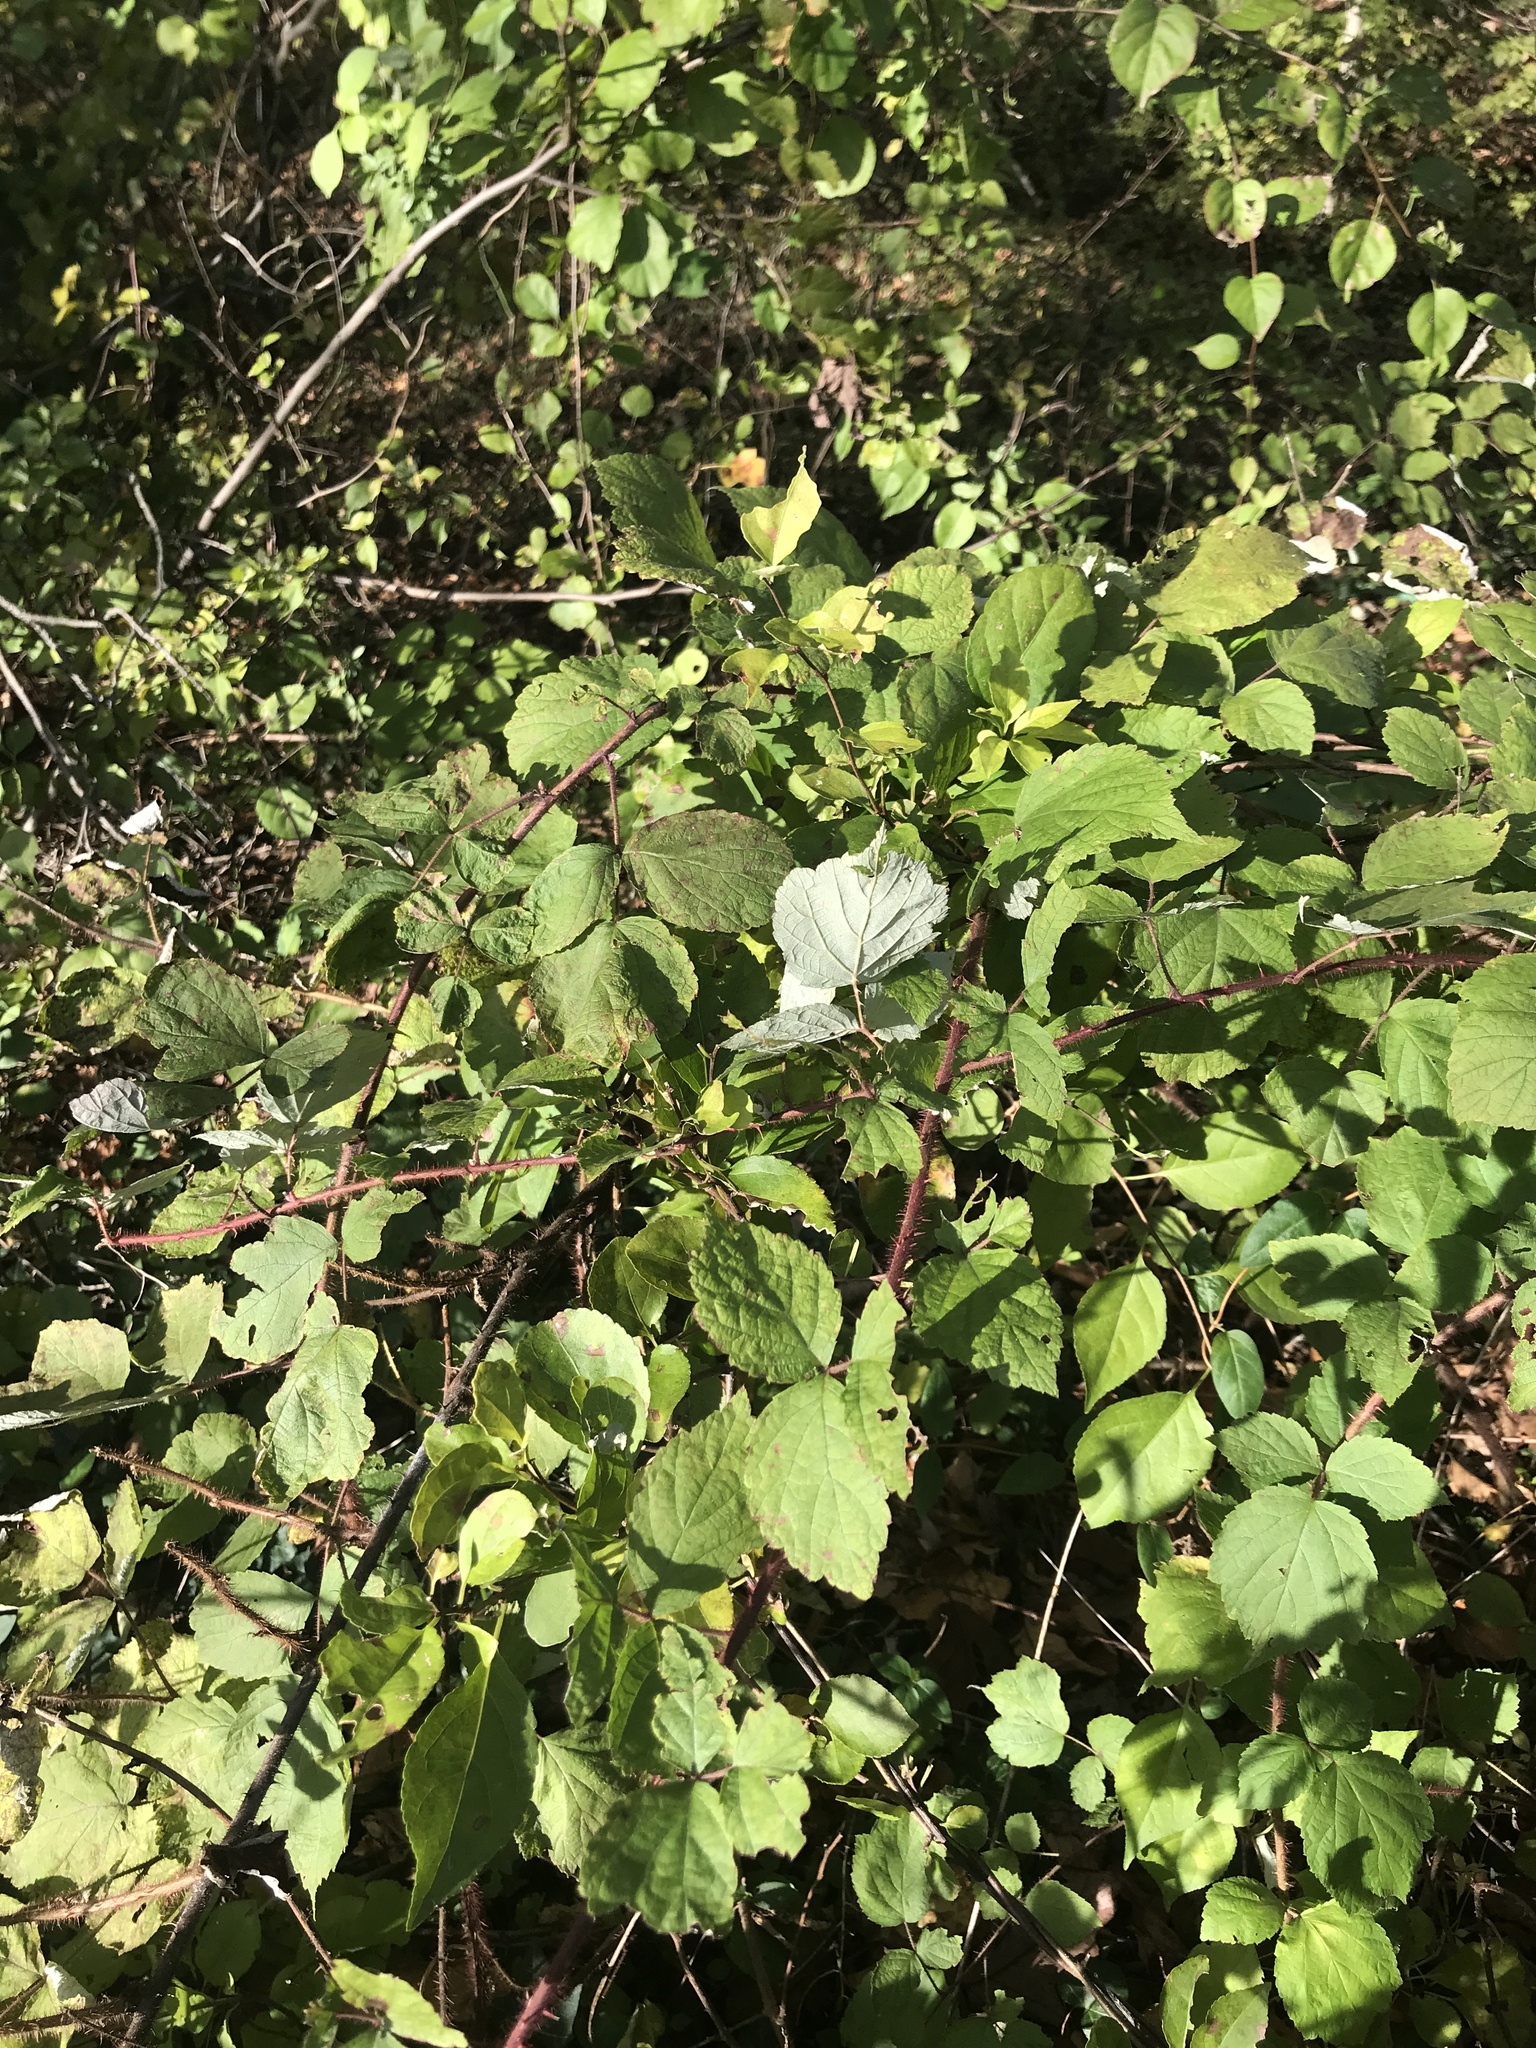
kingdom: Plantae
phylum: Tracheophyta
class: Magnoliopsida
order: Rosales
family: Rosaceae
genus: Rubus
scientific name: Rubus phoenicolasius
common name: Japanese wineberry
